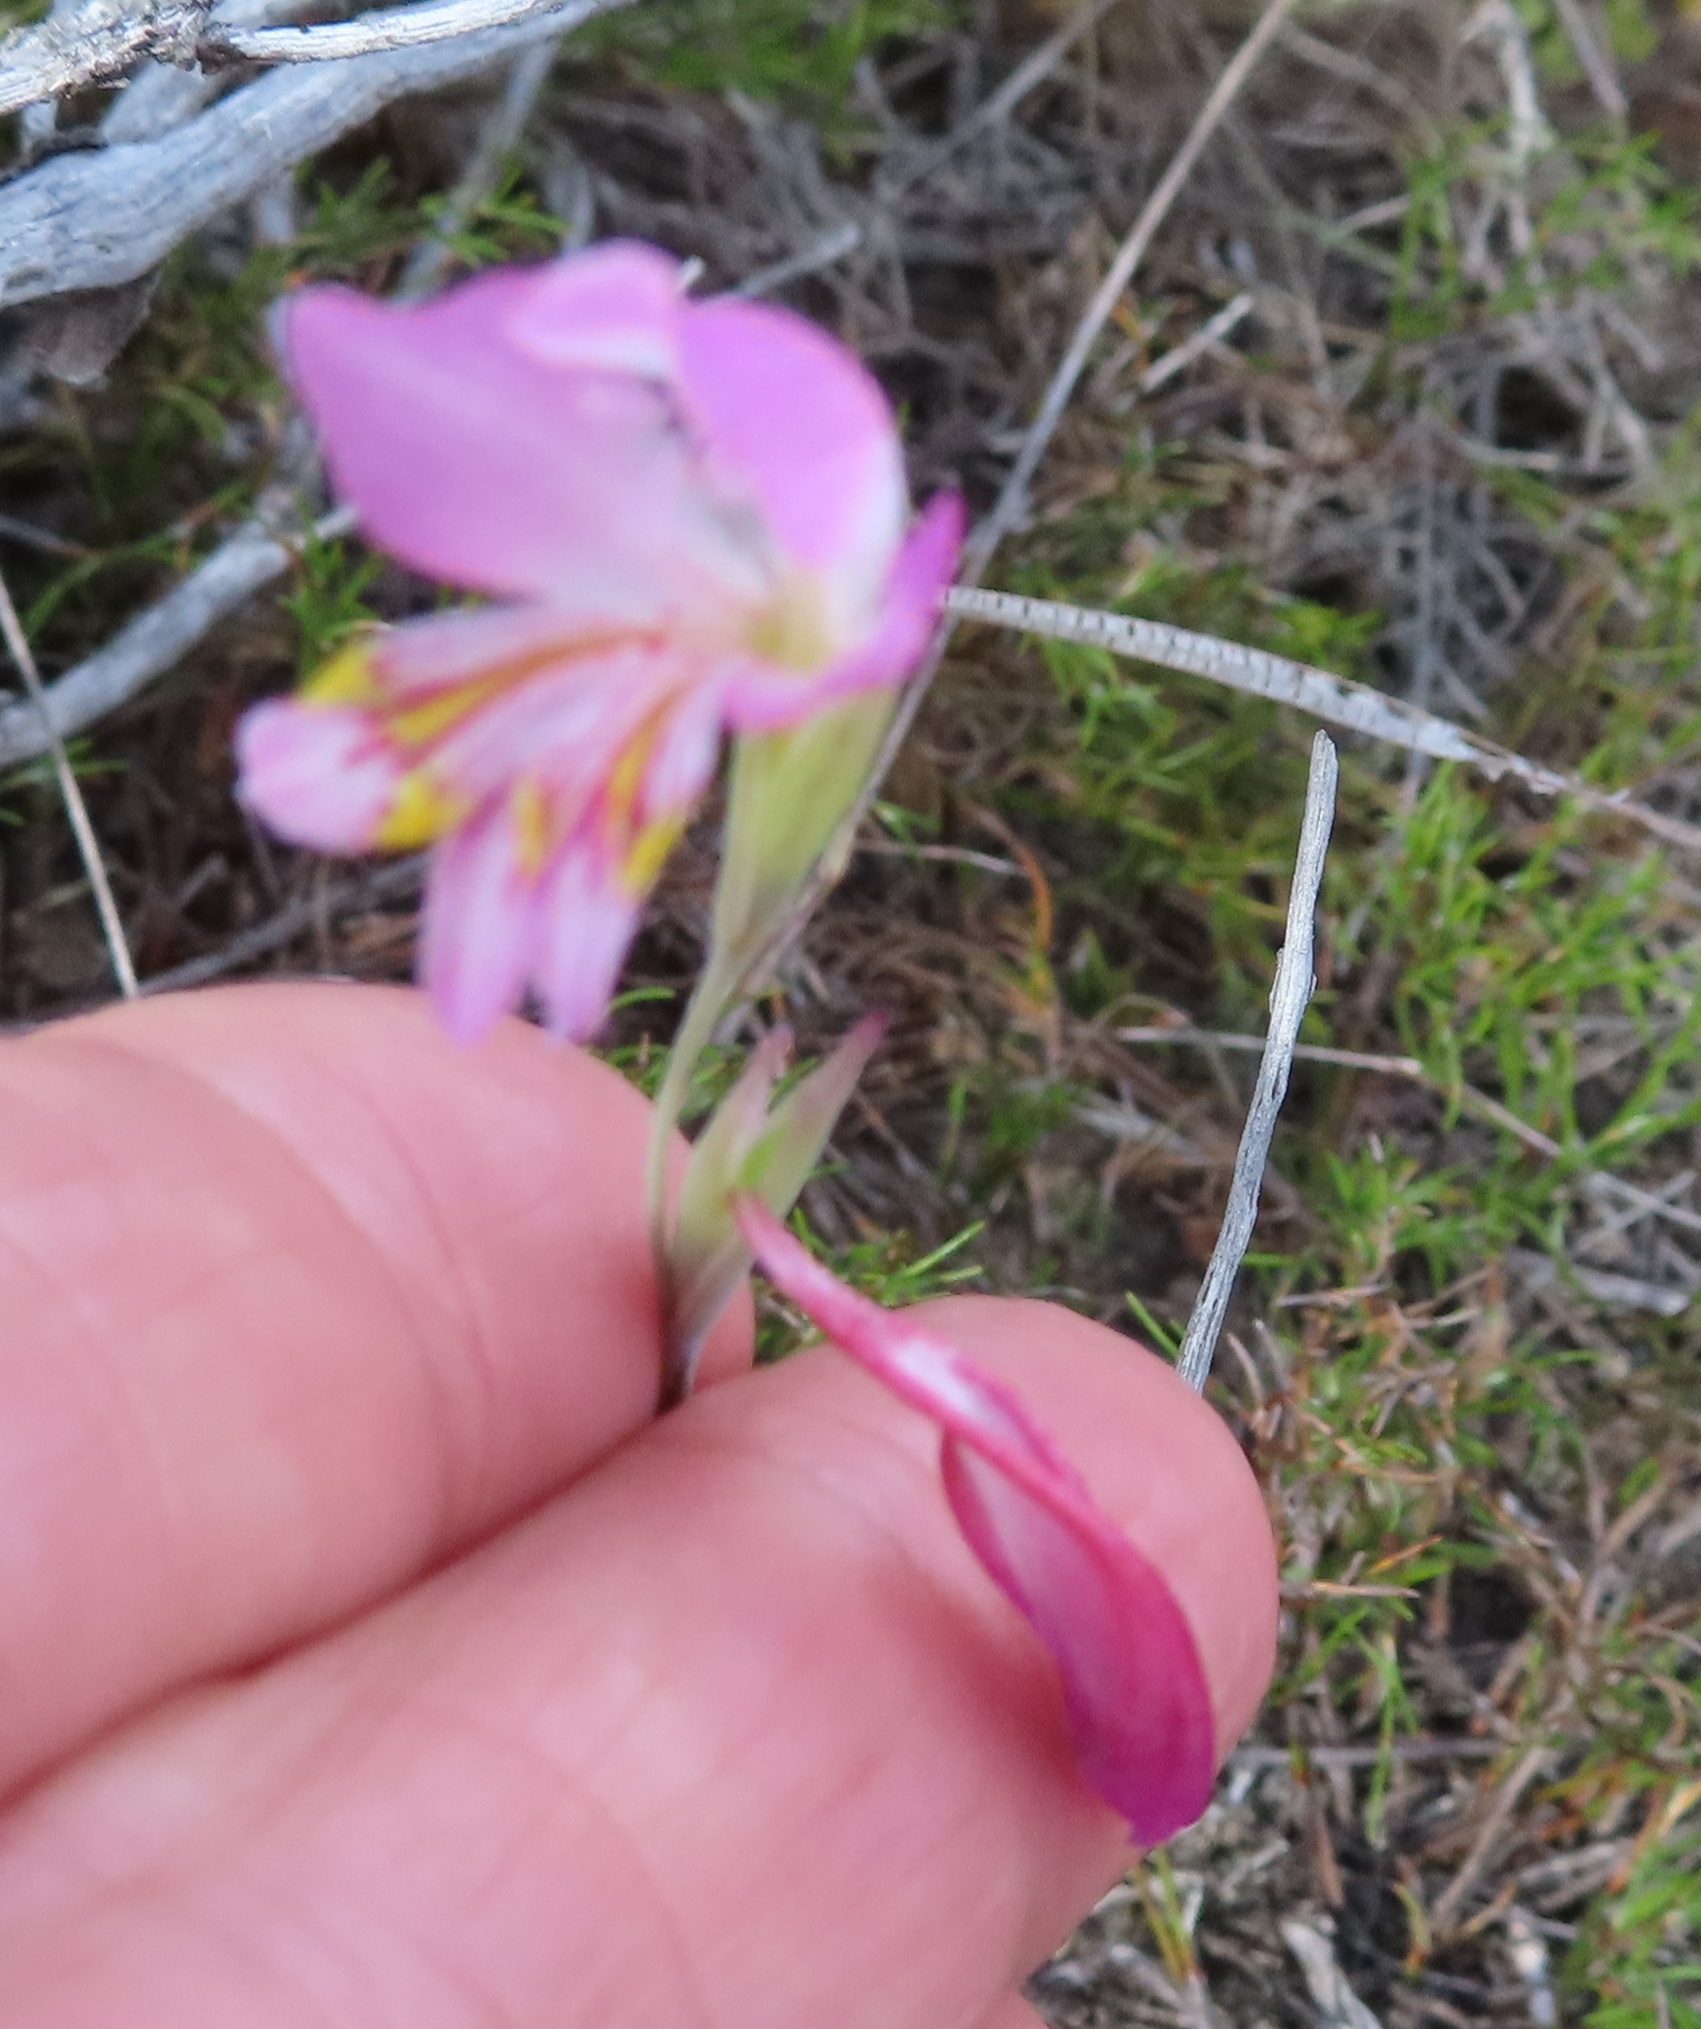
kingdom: Plantae
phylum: Tracheophyta
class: Liliopsida
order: Asparagales
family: Iridaceae
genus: Gladiolus
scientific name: Gladiolus brevifolius
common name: March pypie
